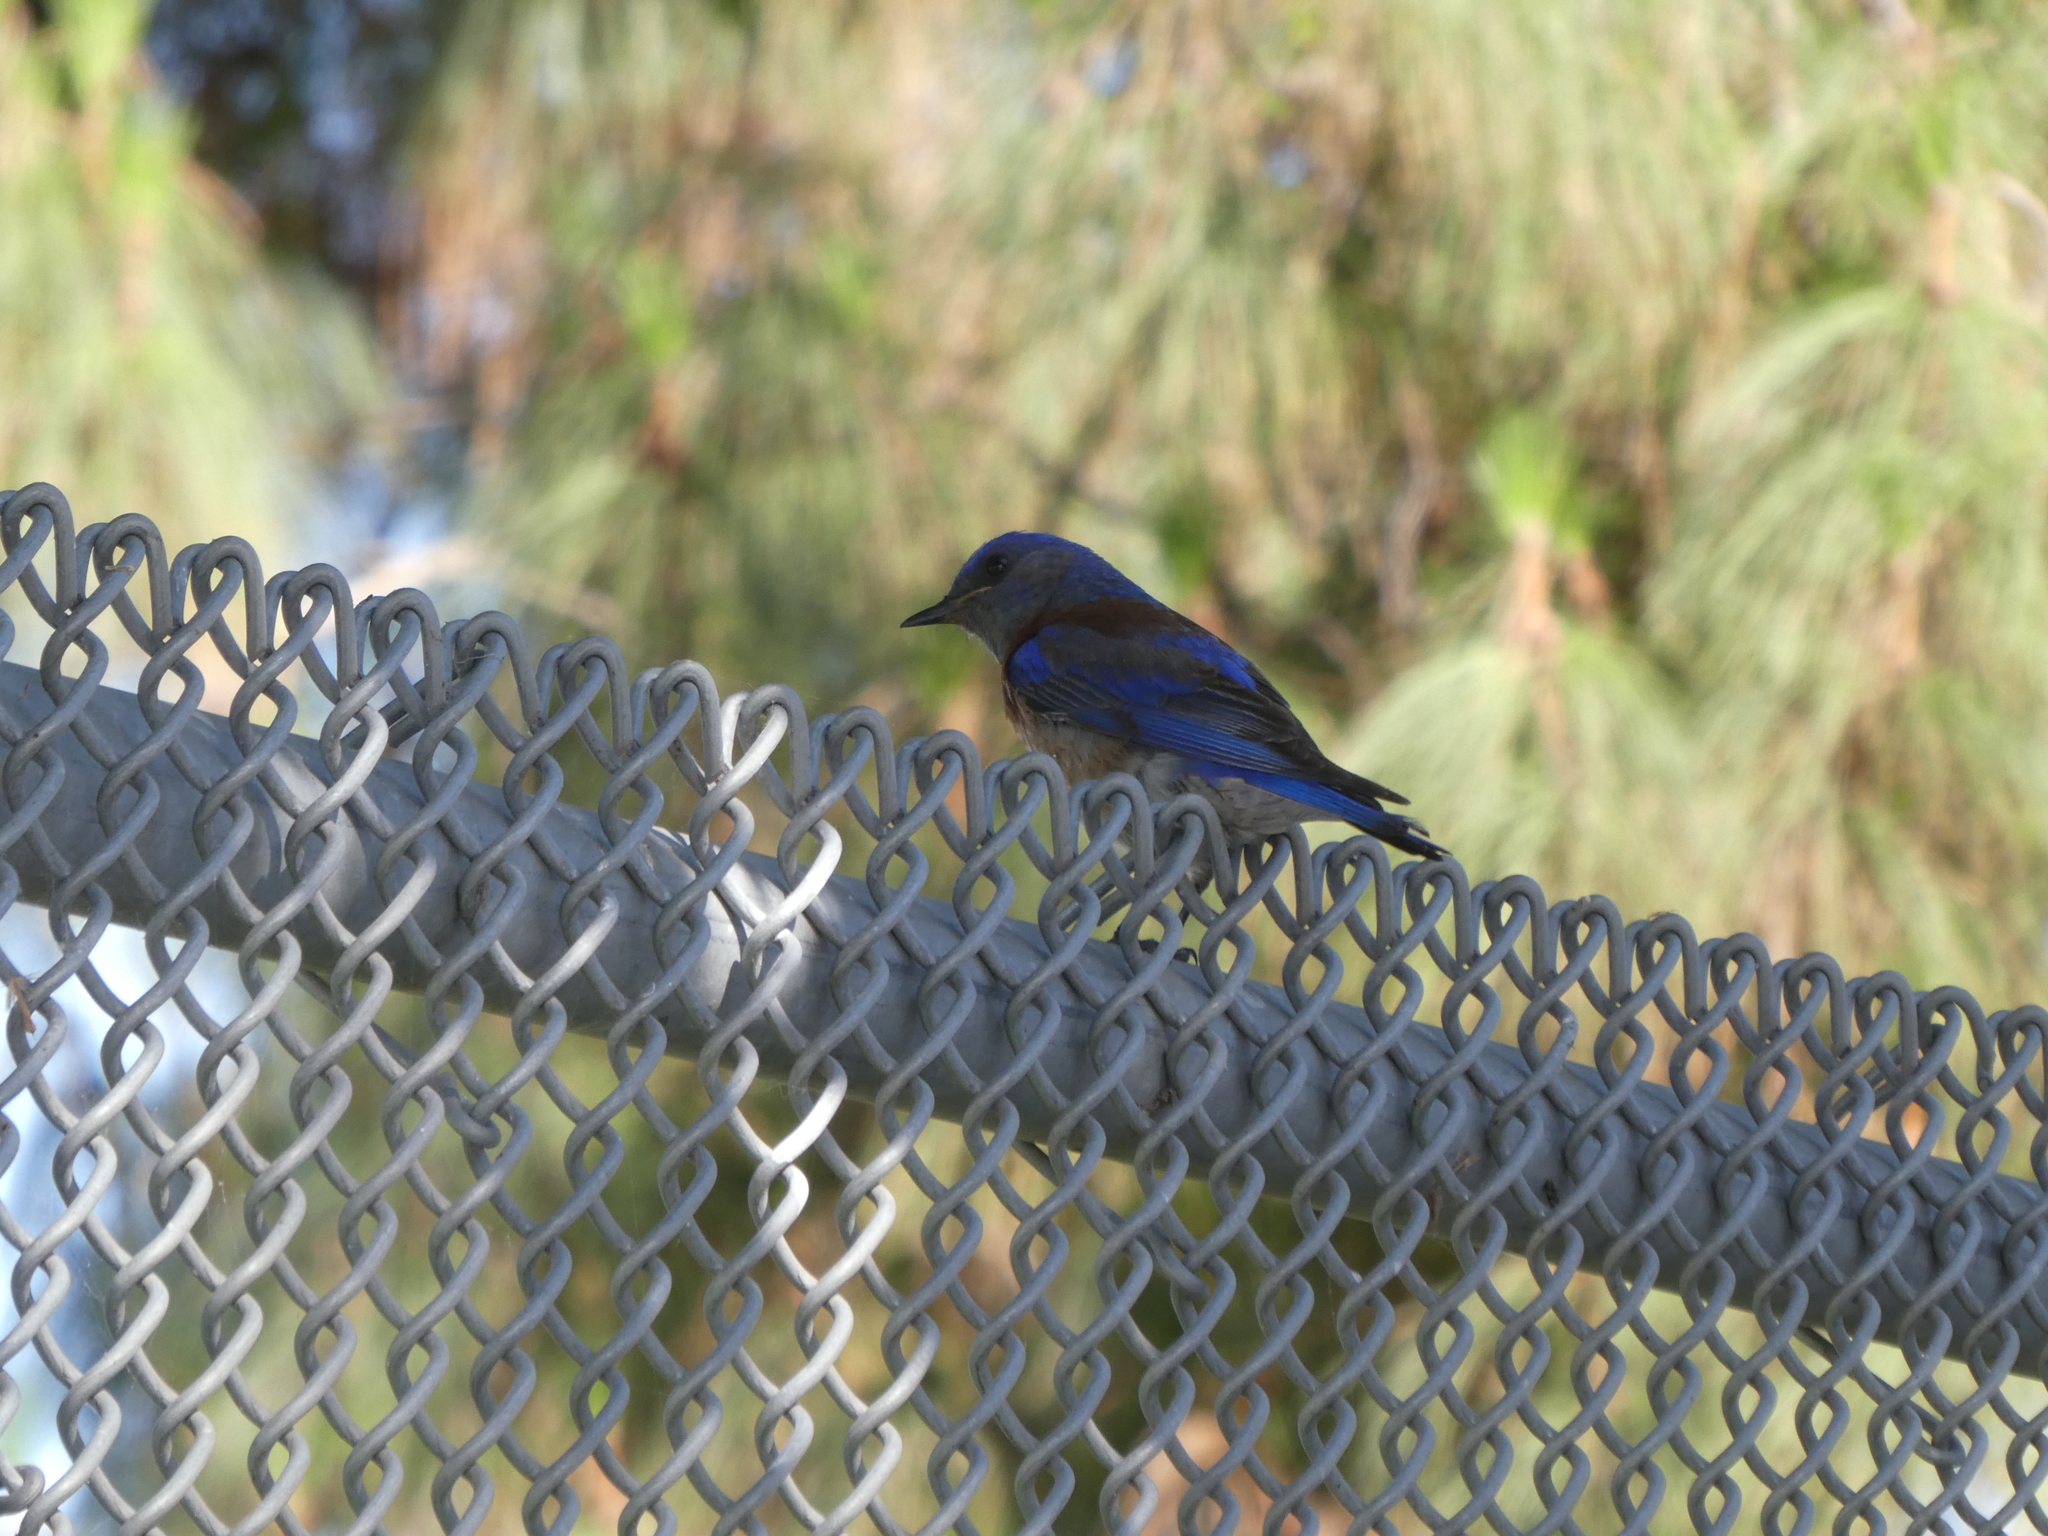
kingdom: Animalia
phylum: Chordata
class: Aves
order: Passeriformes
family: Turdidae
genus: Sialia
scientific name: Sialia mexicana
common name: Western bluebird
